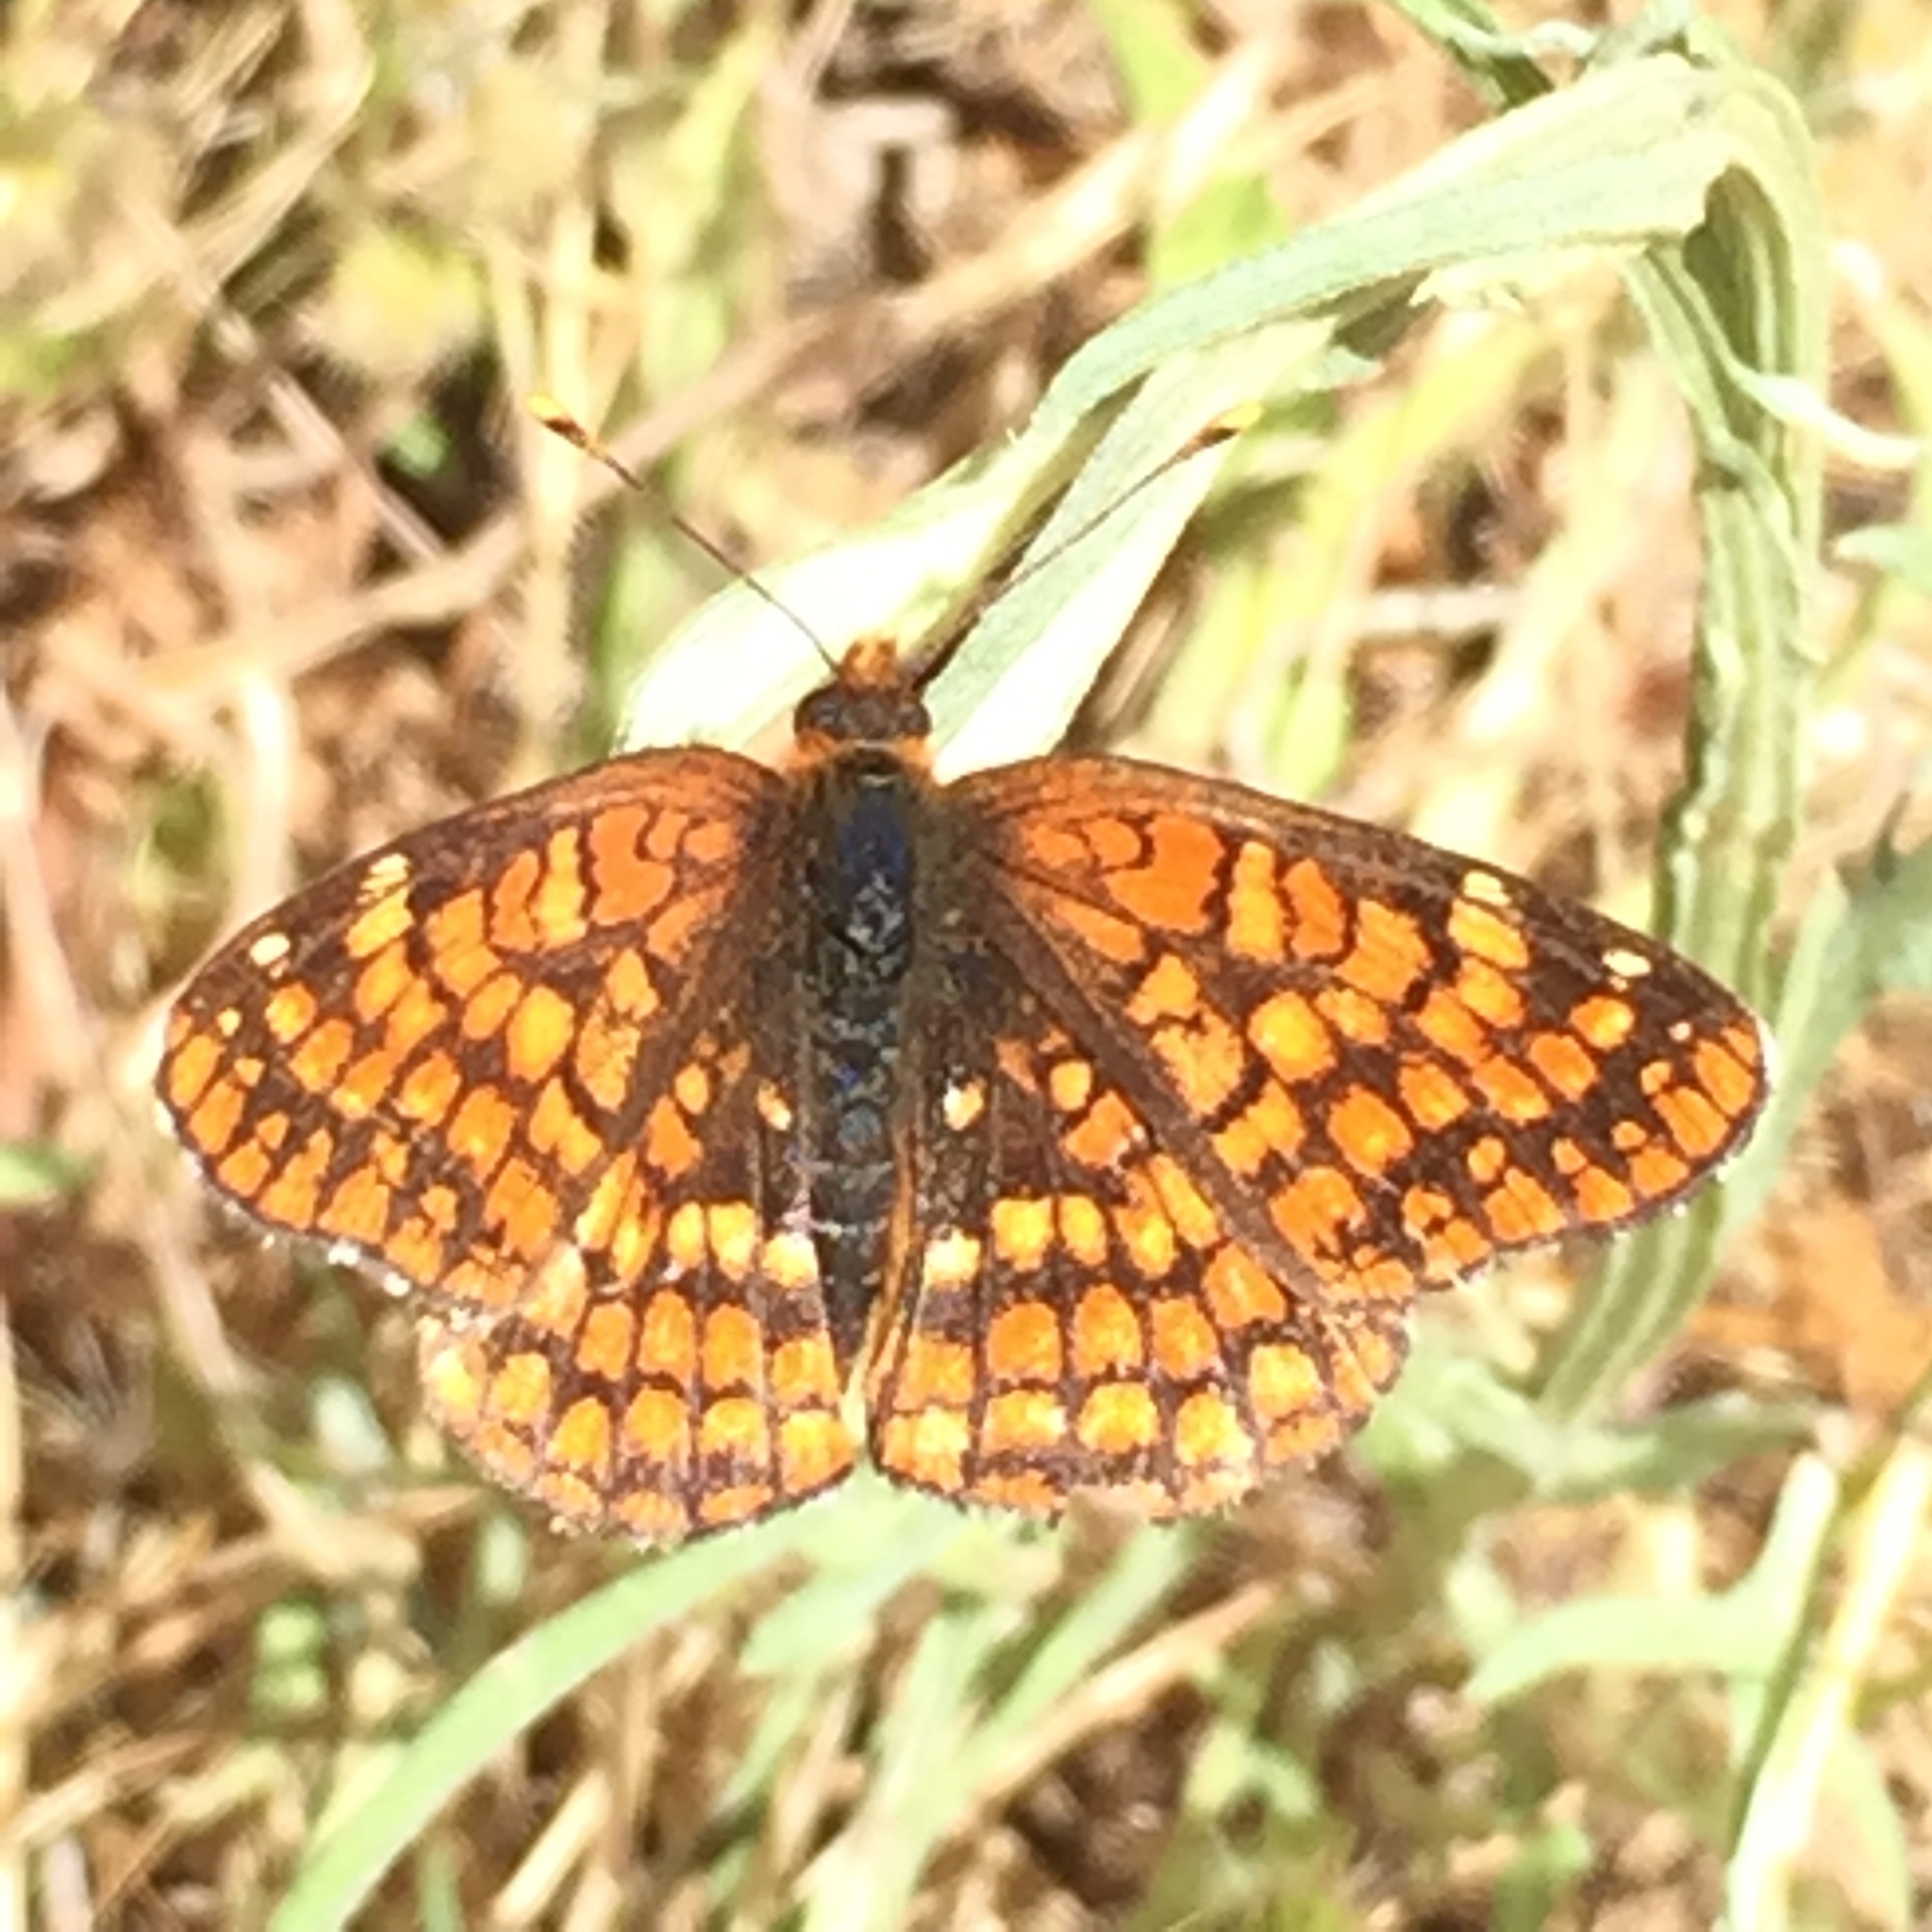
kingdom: Animalia
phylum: Arthropoda
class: Insecta
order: Lepidoptera
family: Nymphalidae
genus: Chlosyne
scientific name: Chlosyne palla
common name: Northern checkerspot
